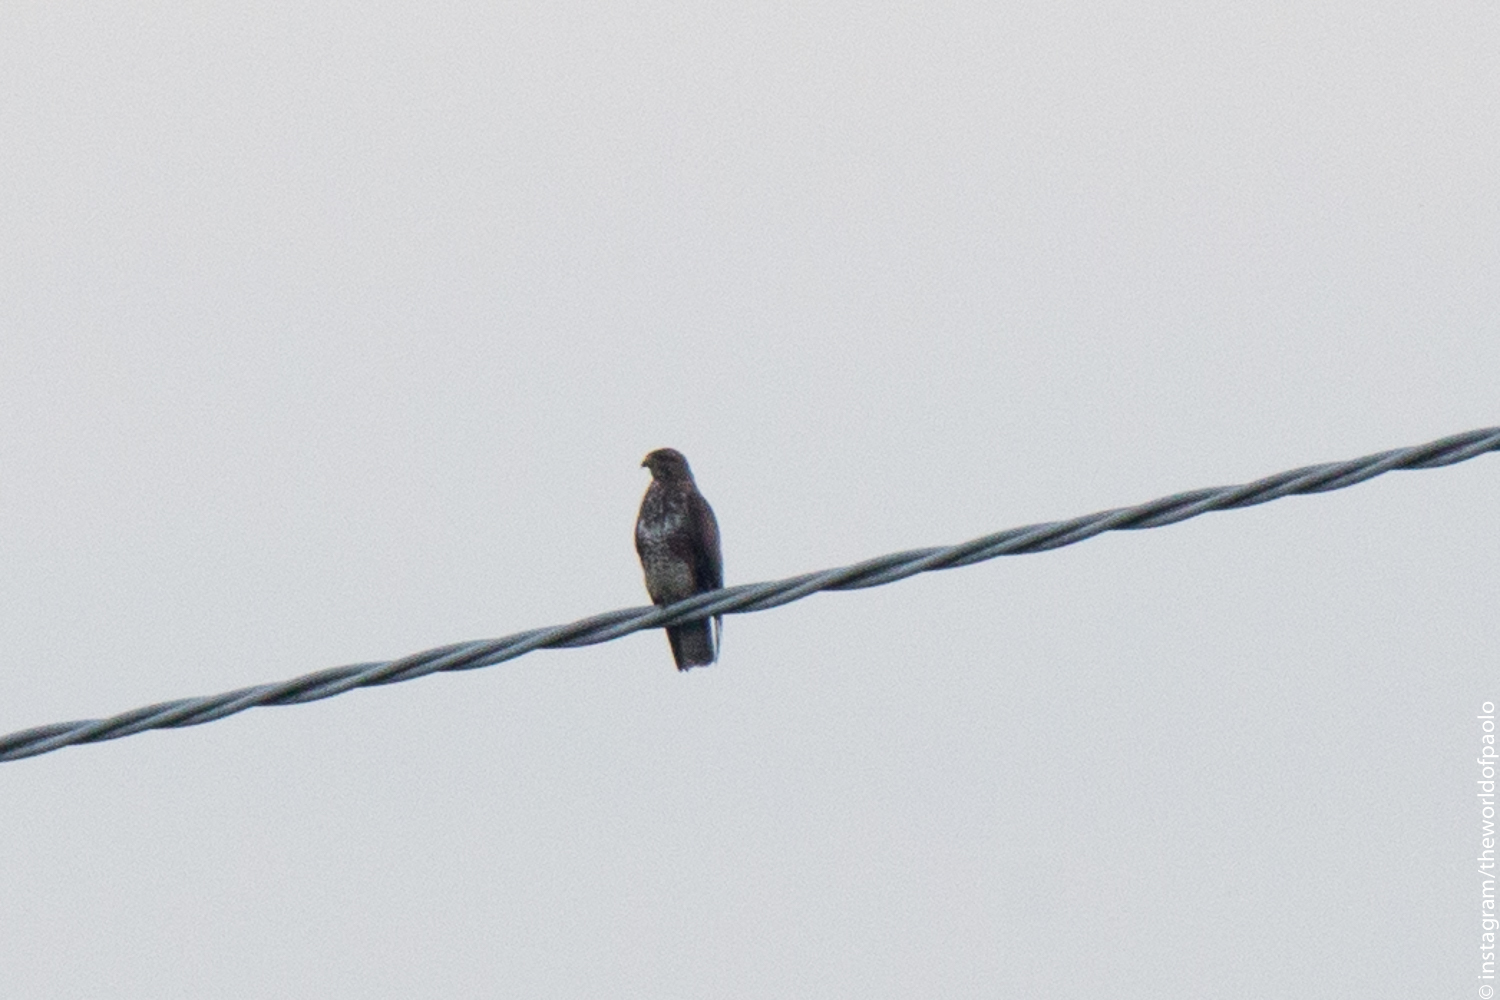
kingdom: Animalia
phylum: Chordata
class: Aves
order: Accipitriformes
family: Accipitridae
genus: Buteo
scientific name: Buteo buteo
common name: Common buzzard
